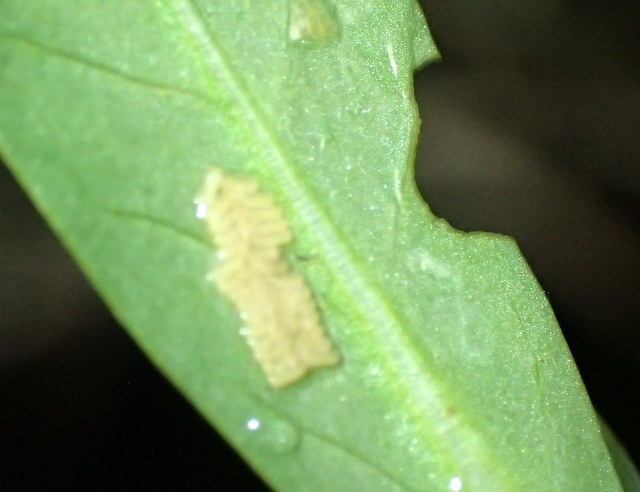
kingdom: Animalia
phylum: Arthropoda
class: Insecta
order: Coleoptera
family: Chrysomelidae
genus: Agasicles
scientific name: Agasicles hygrophila
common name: Alligatorweed flea beetle
